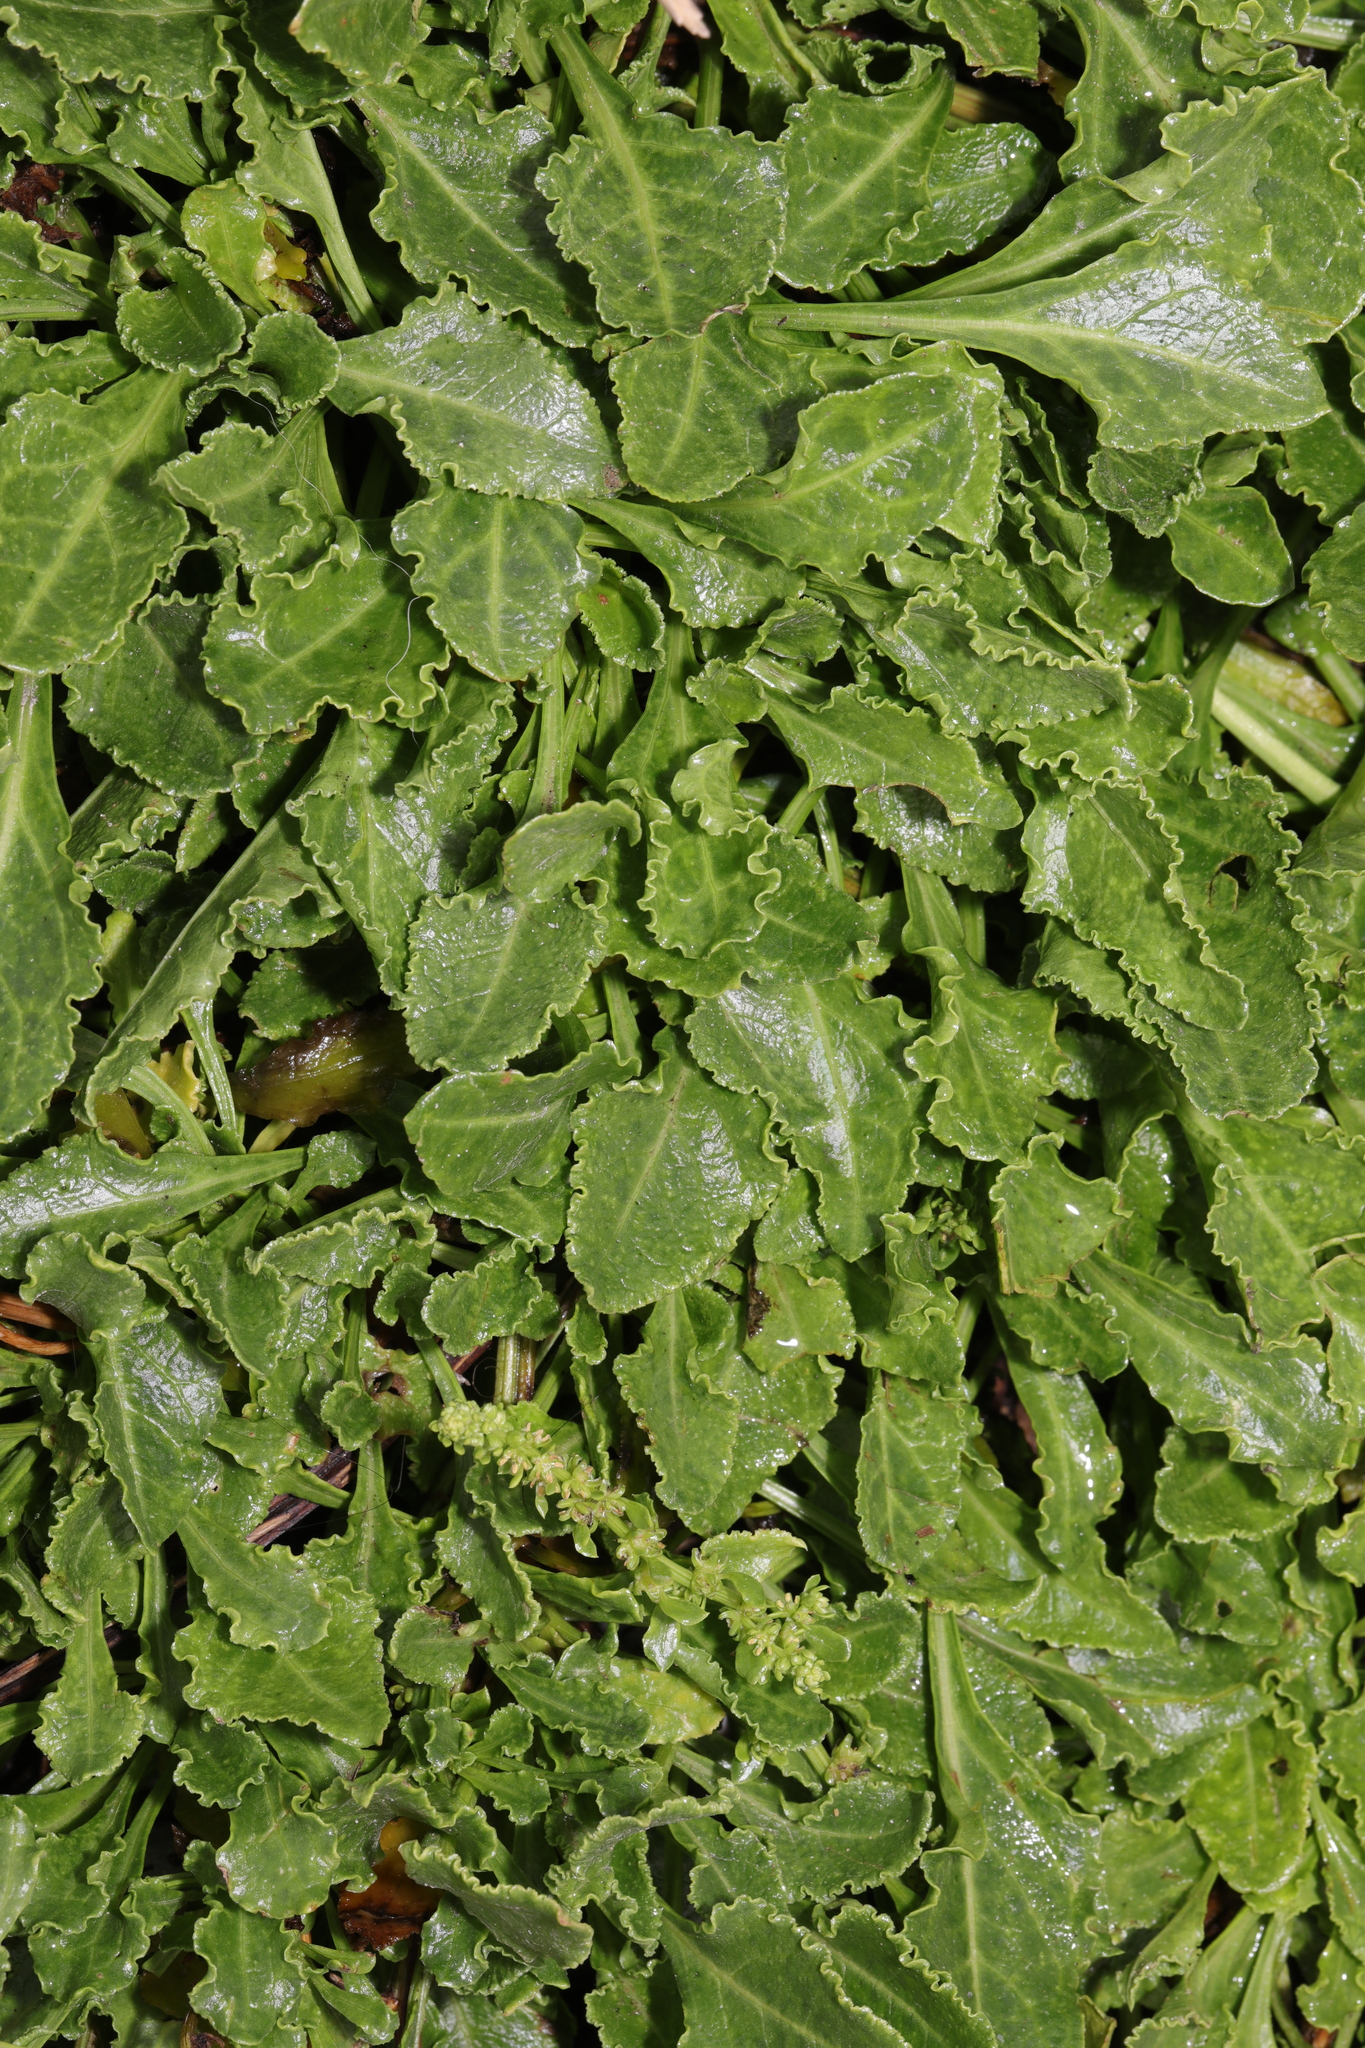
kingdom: Plantae
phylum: Tracheophyta
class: Magnoliopsida
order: Caryophyllales
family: Amaranthaceae
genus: Beta
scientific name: Beta vulgaris
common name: Beet
